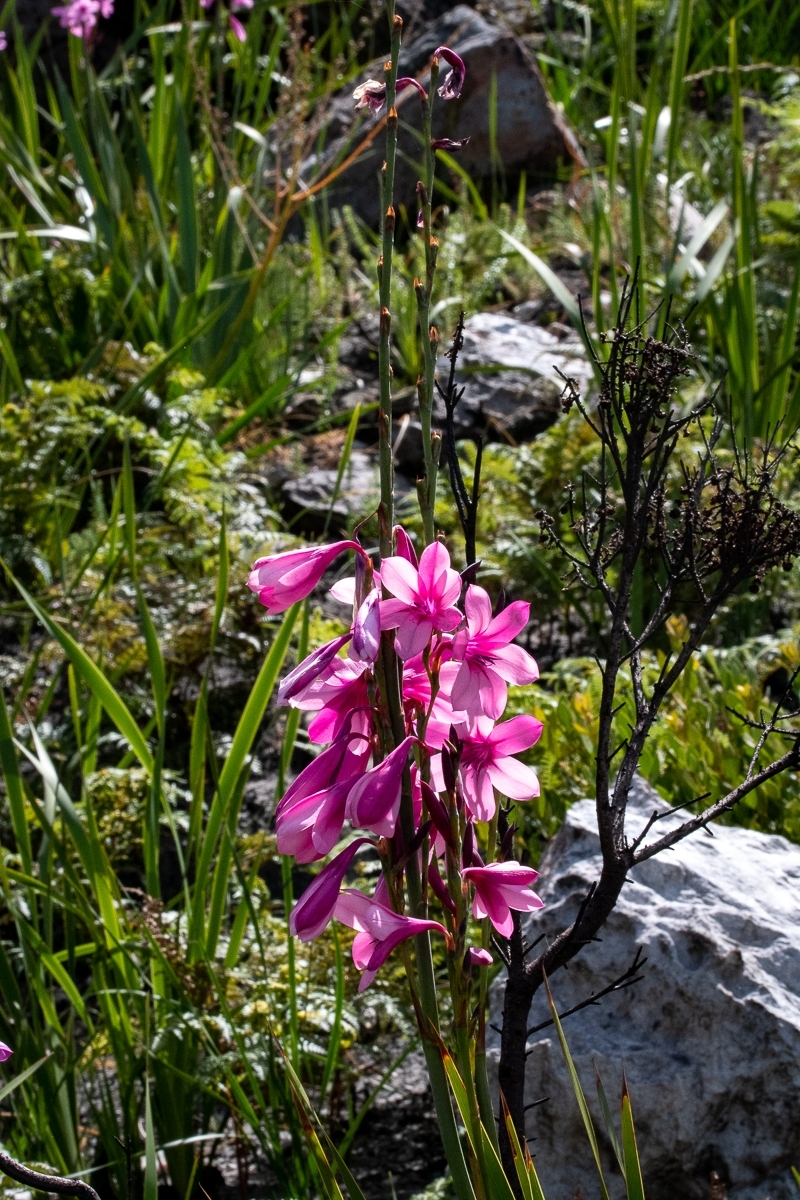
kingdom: Plantae
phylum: Tracheophyta
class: Liliopsida
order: Asparagales
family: Iridaceae
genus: Watsonia
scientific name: Watsonia borbonica
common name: Bugle-lily
